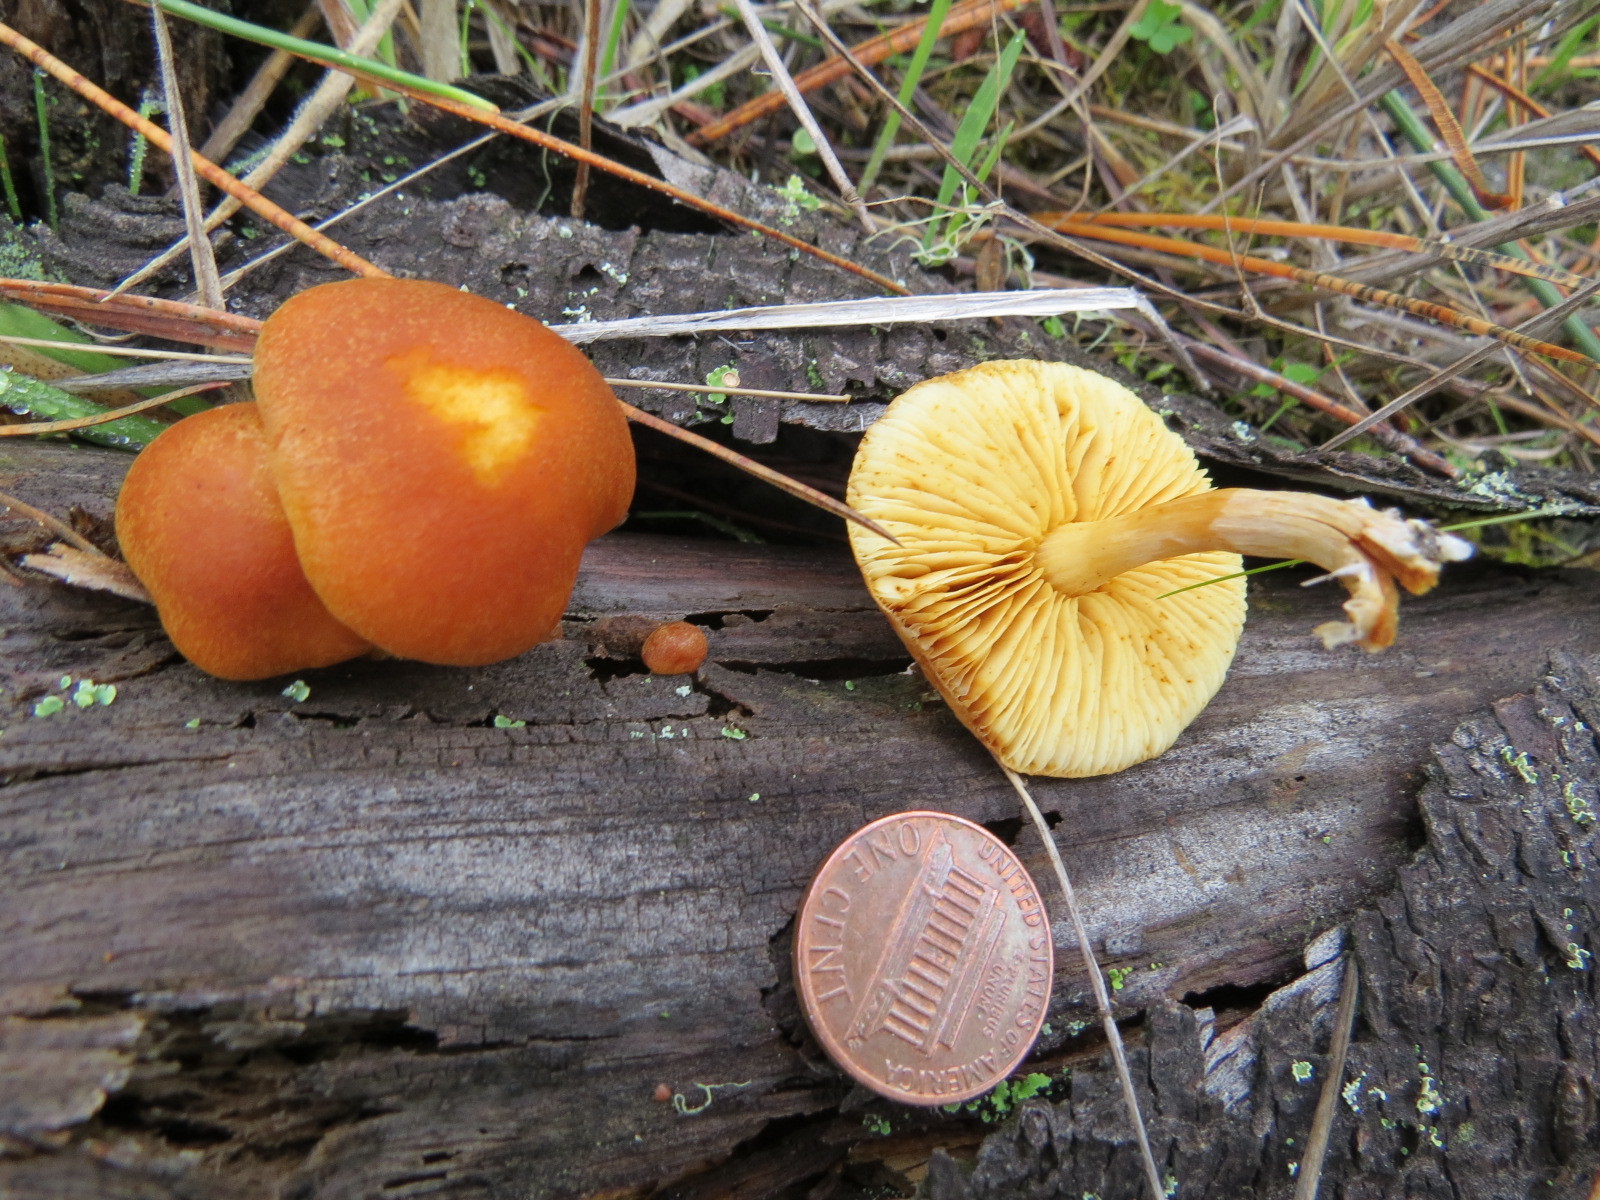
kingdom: Fungi
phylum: Basidiomycota
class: Agaricomycetes
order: Agaricales
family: Hymenogastraceae
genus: Gymnopilus
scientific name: Gymnopilus sapineus
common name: Scaly rustgill
